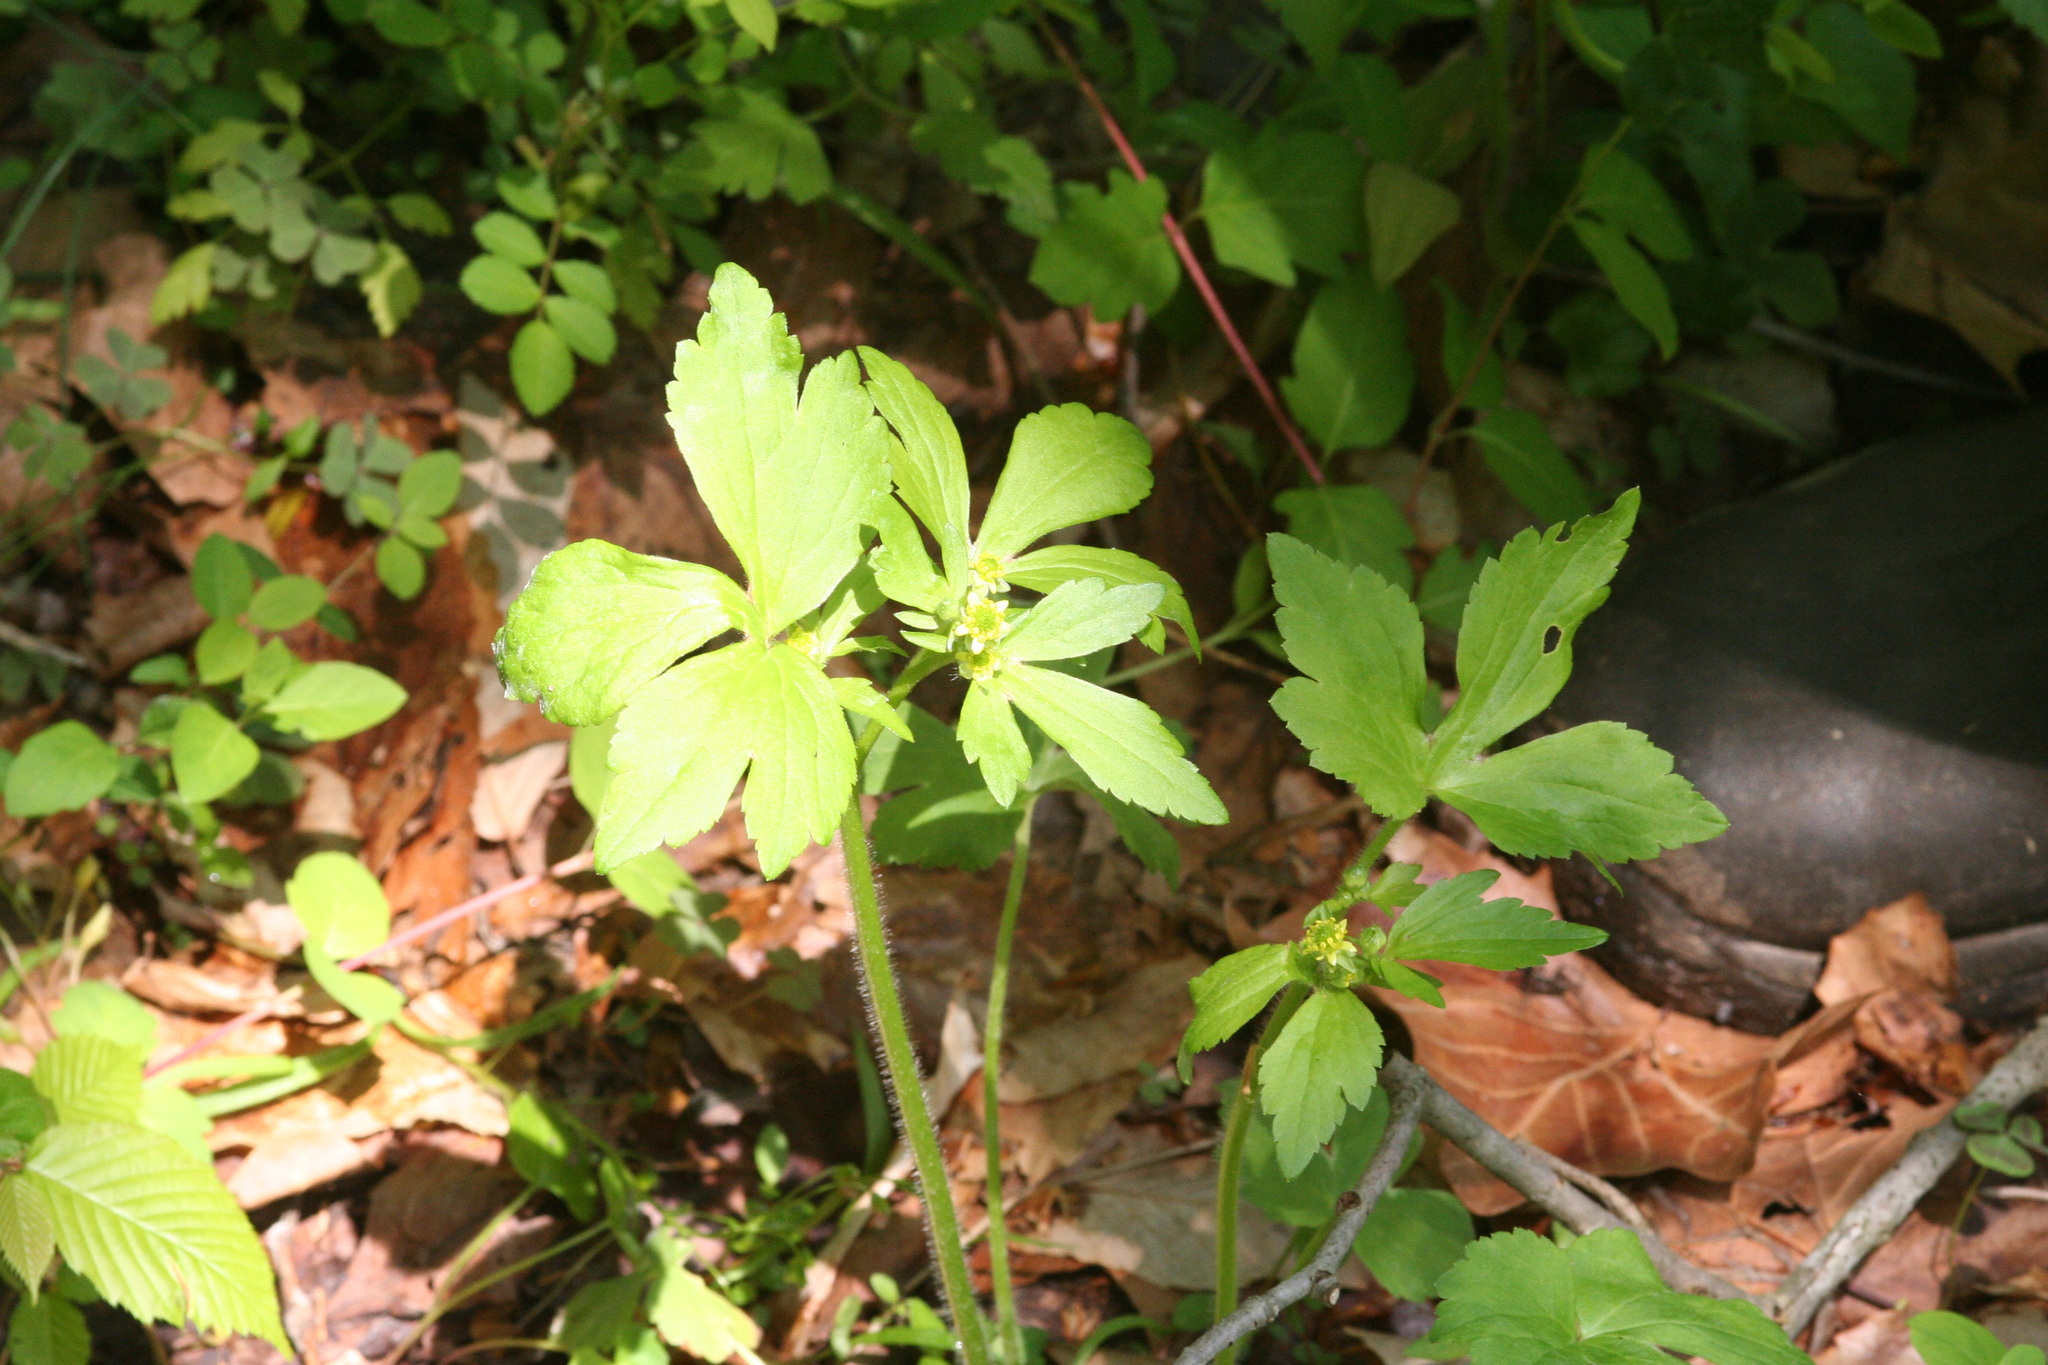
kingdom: Plantae
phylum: Tracheophyta
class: Magnoliopsida
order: Ranunculales
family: Ranunculaceae
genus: Ranunculus
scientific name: Ranunculus recurvatus
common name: Blisterwort
